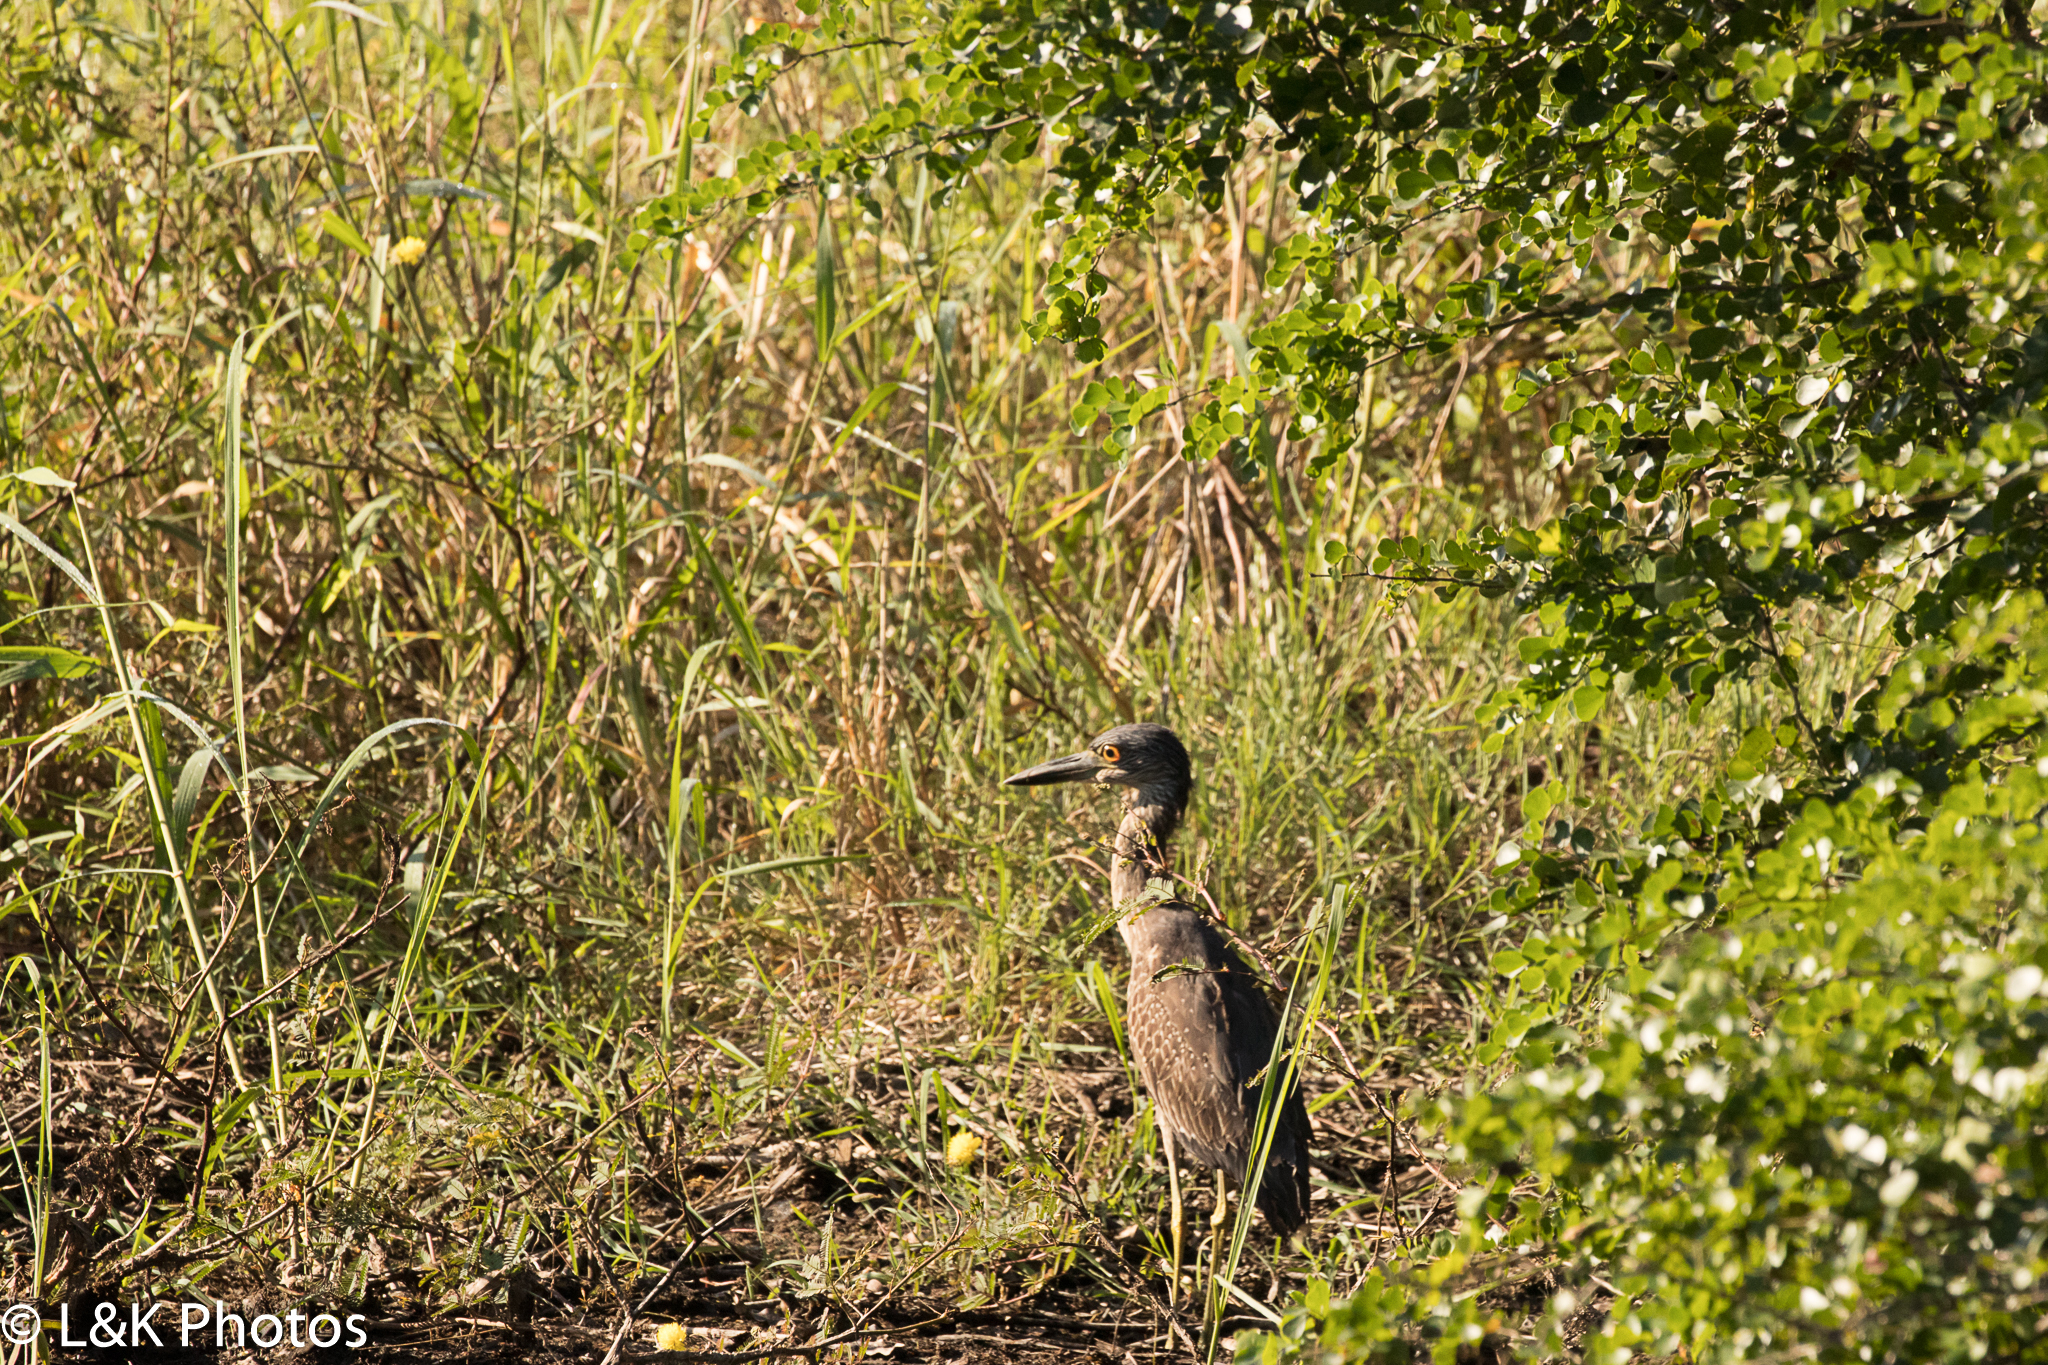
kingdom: Animalia
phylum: Chordata
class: Aves
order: Pelecaniformes
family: Ardeidae
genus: Nyctanassa
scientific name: Nyctanassa violacea
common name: Yellow-crowned night heron
